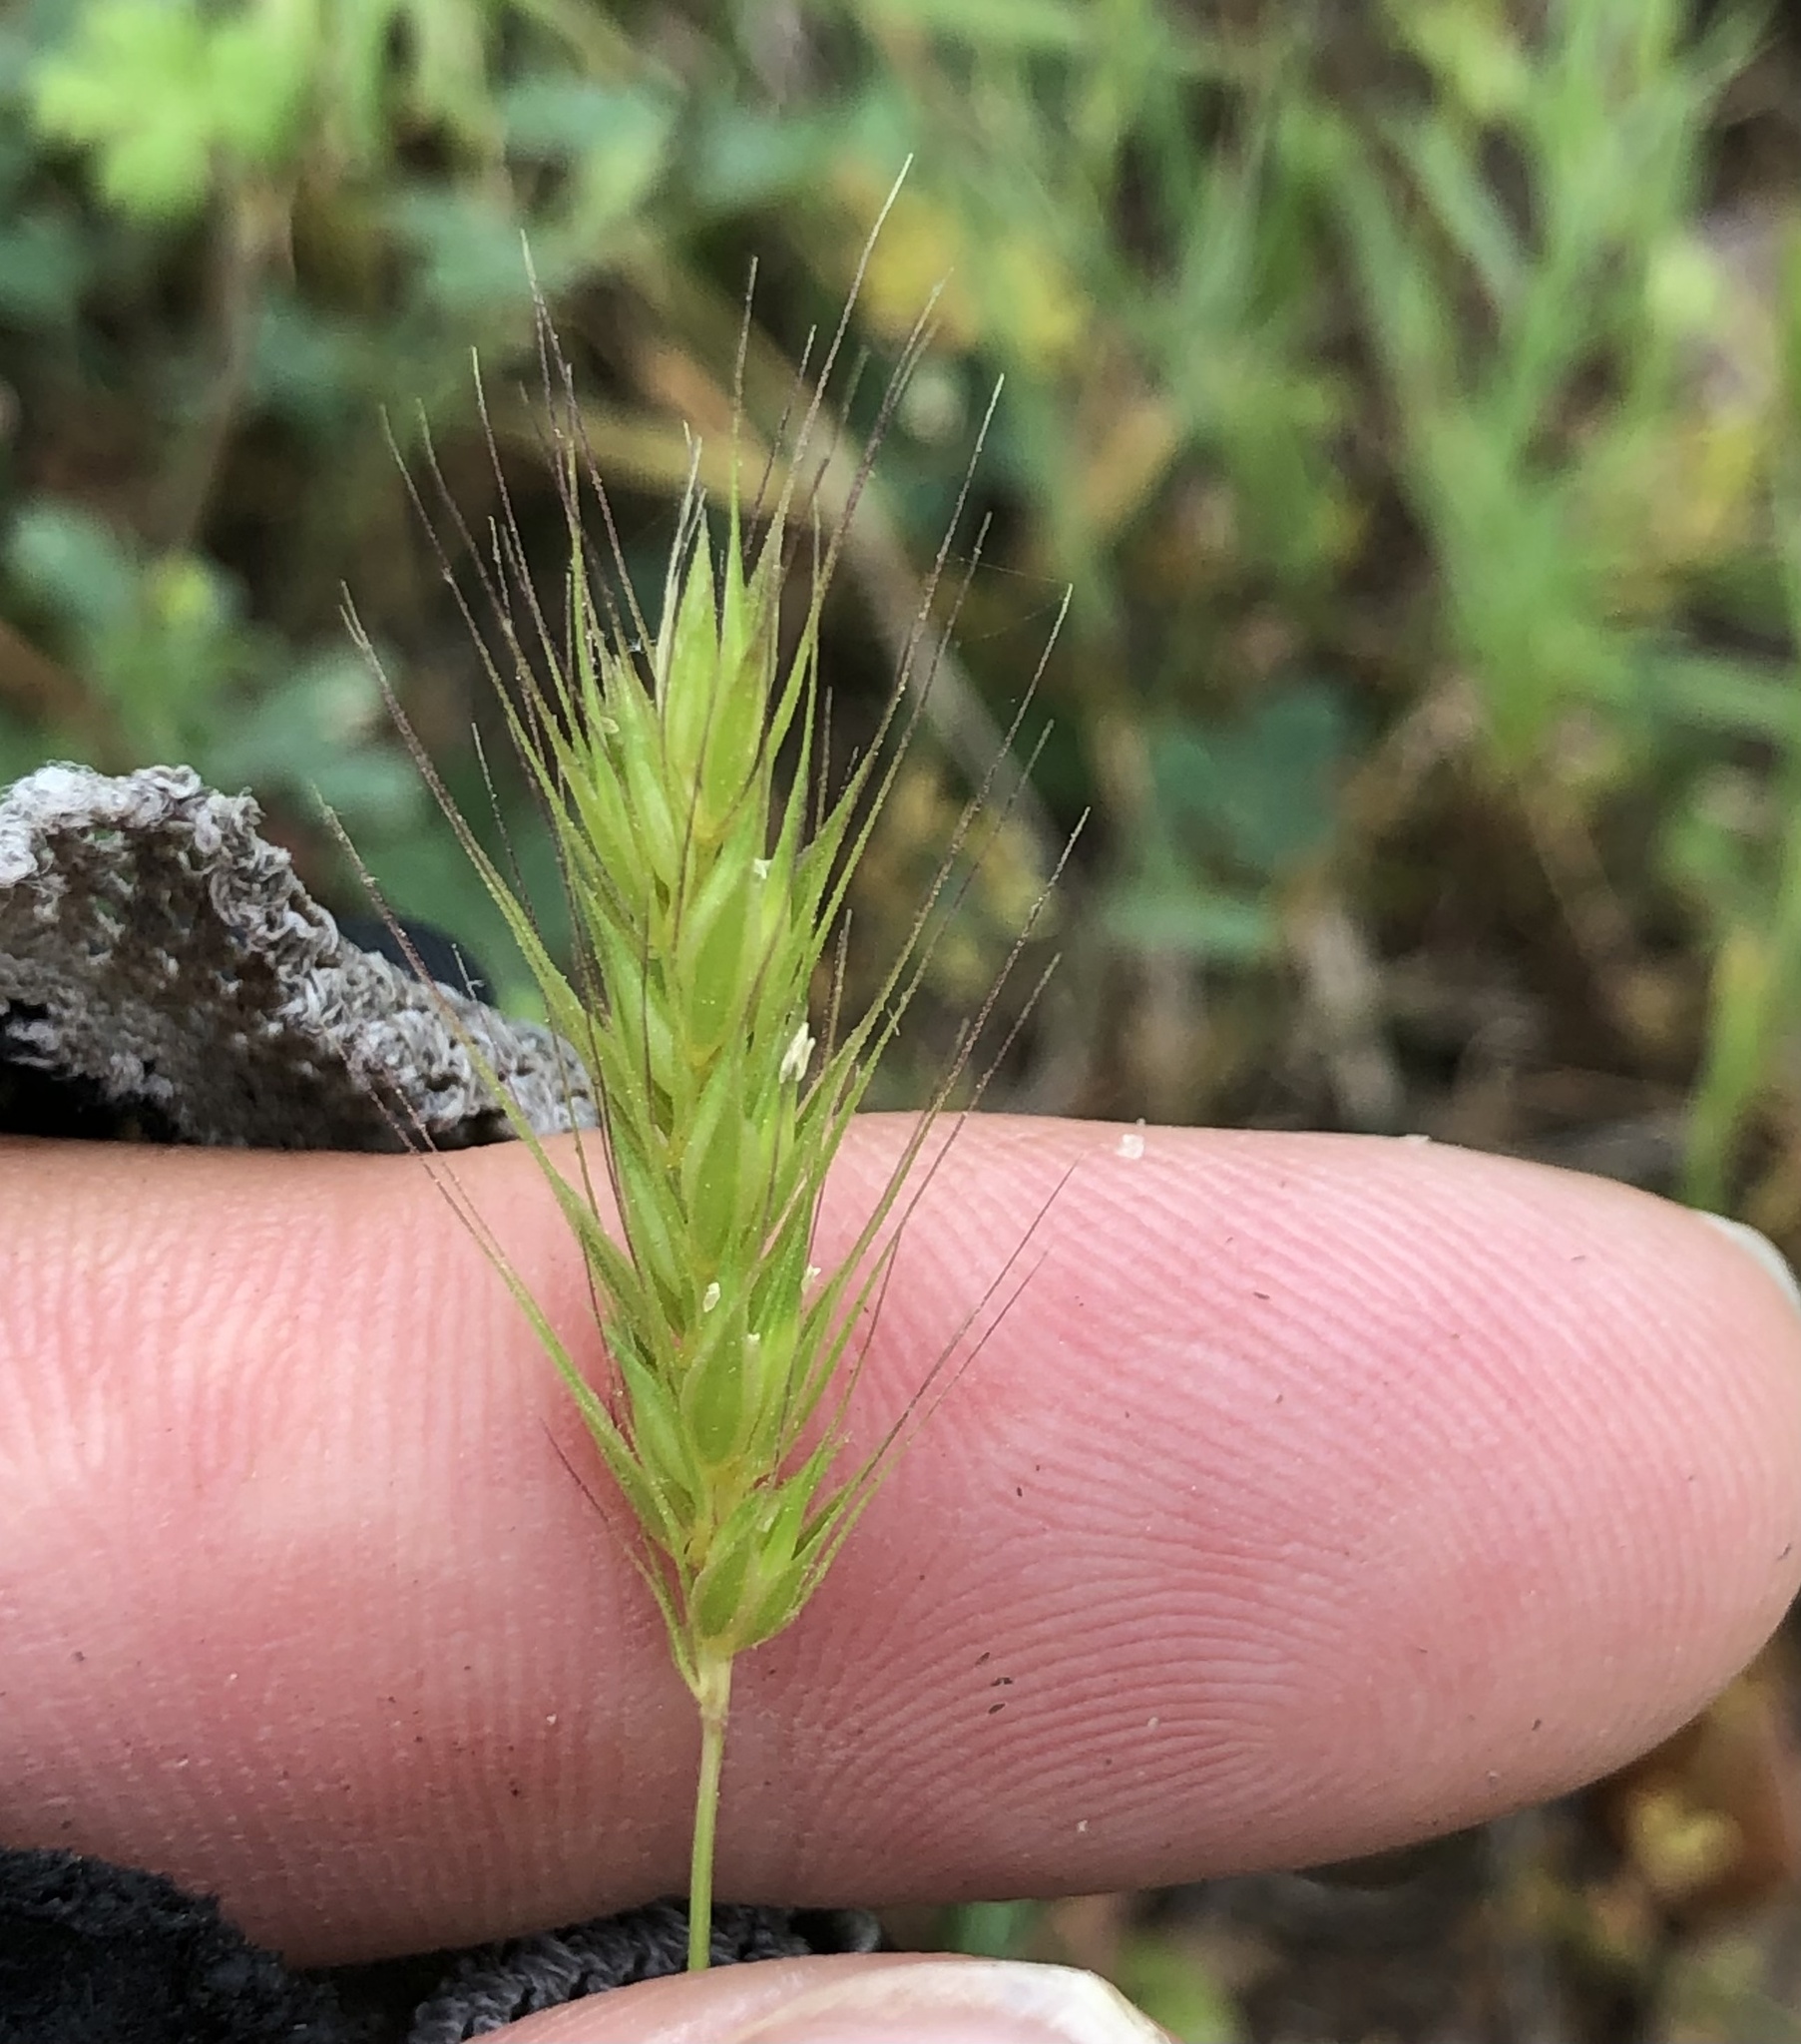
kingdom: Plantae
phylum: Tracheophyta
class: Liliopsida
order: Poales
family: Poaceae
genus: Hordeum
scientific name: Hordeum pusillum
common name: Little barley
